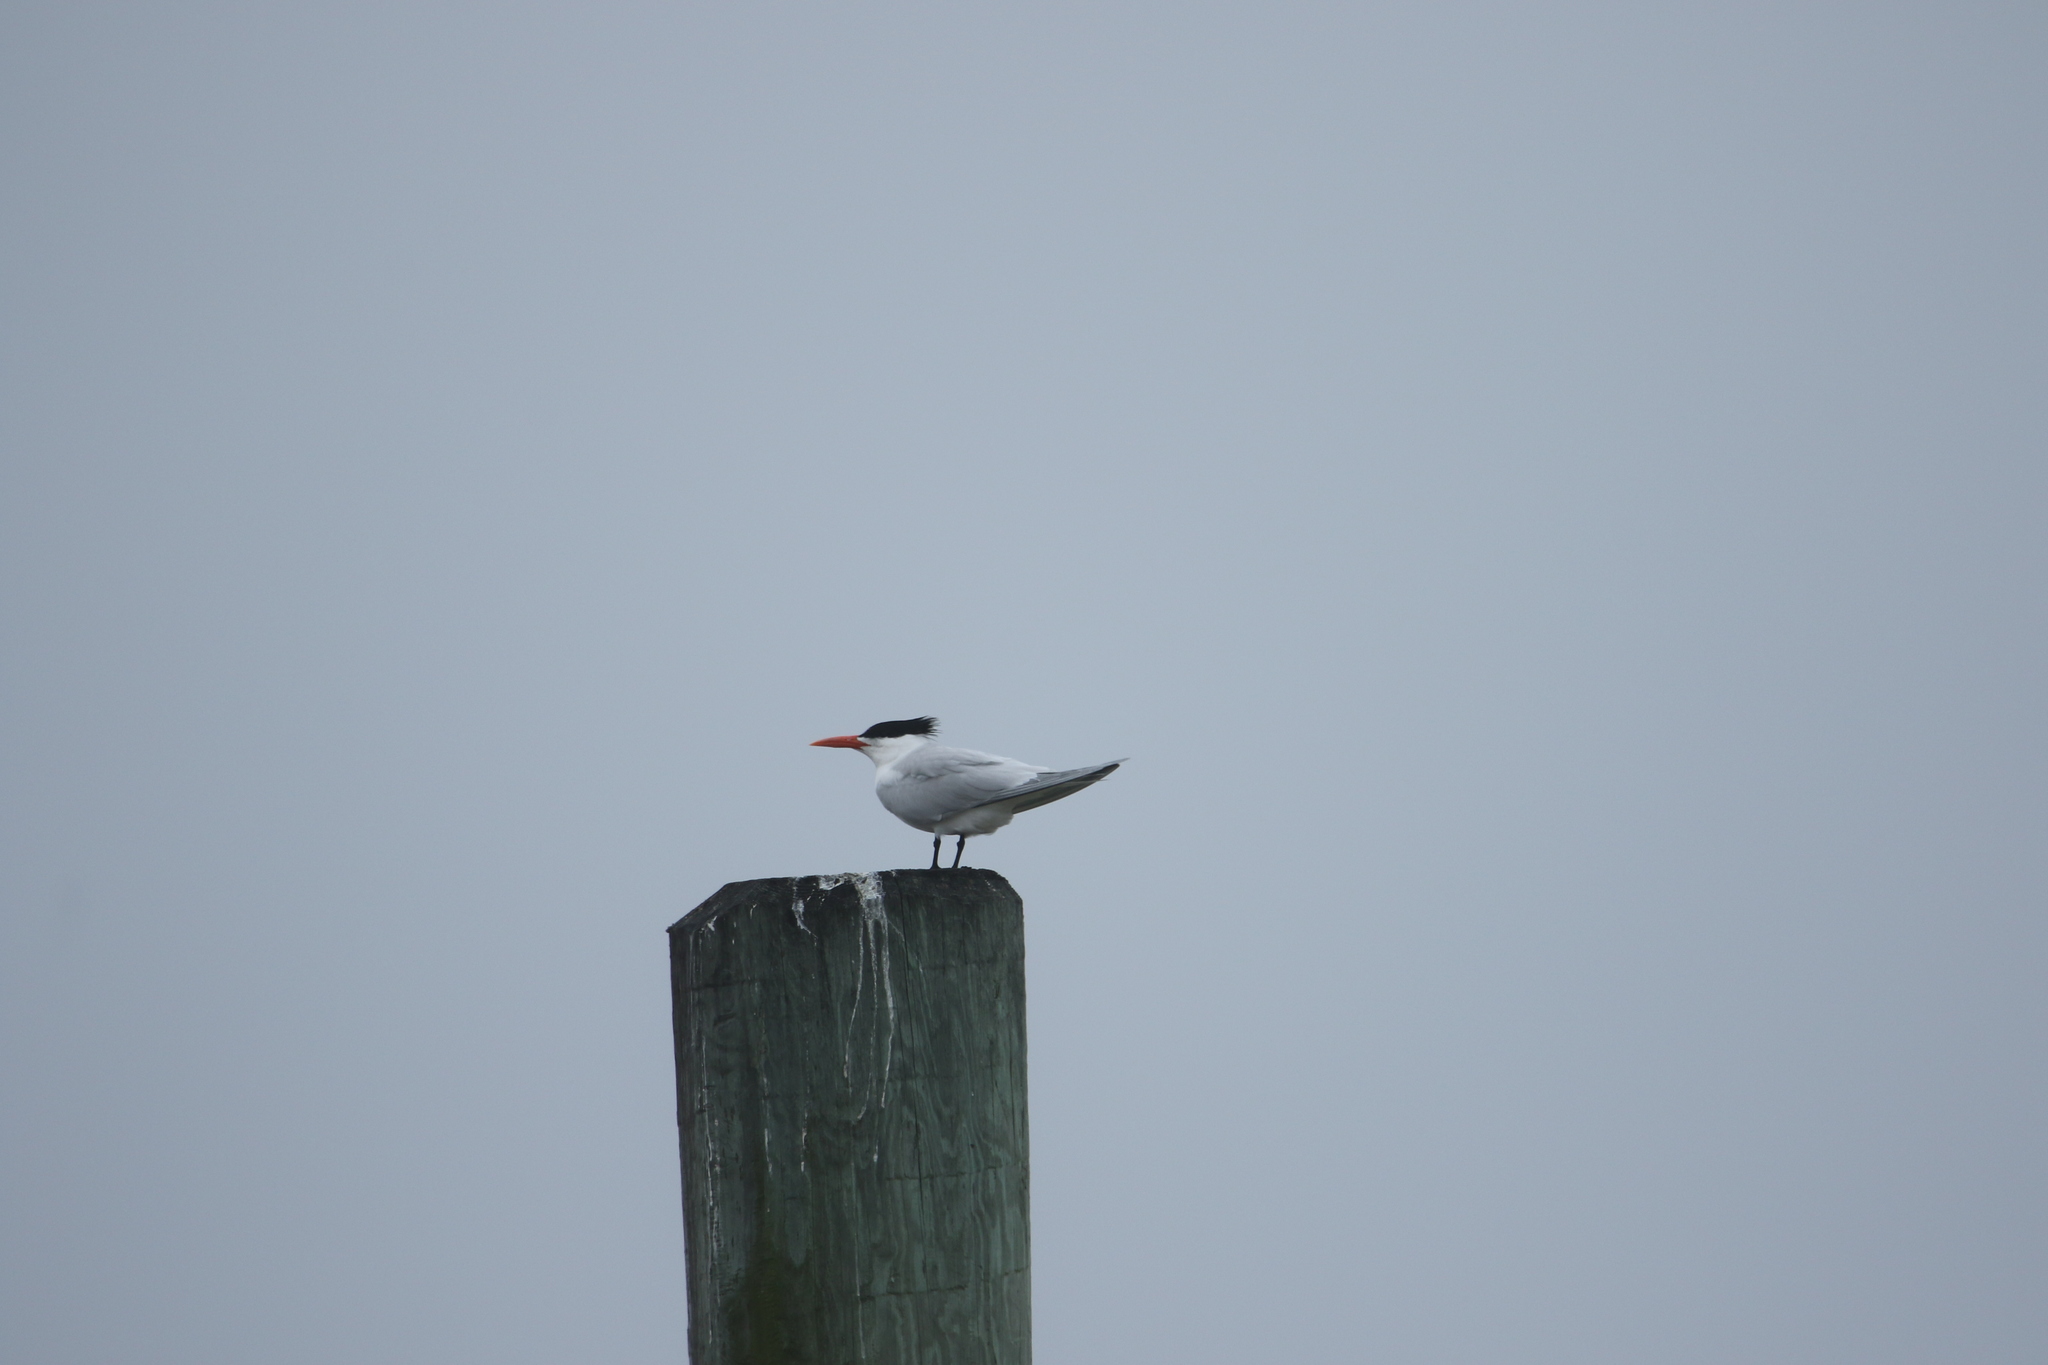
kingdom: Animalia
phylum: Chordata
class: Aves
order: Charadriiformes
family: Laridae
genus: Thalasseus
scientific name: Thalasseus maximus
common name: Royal tern
